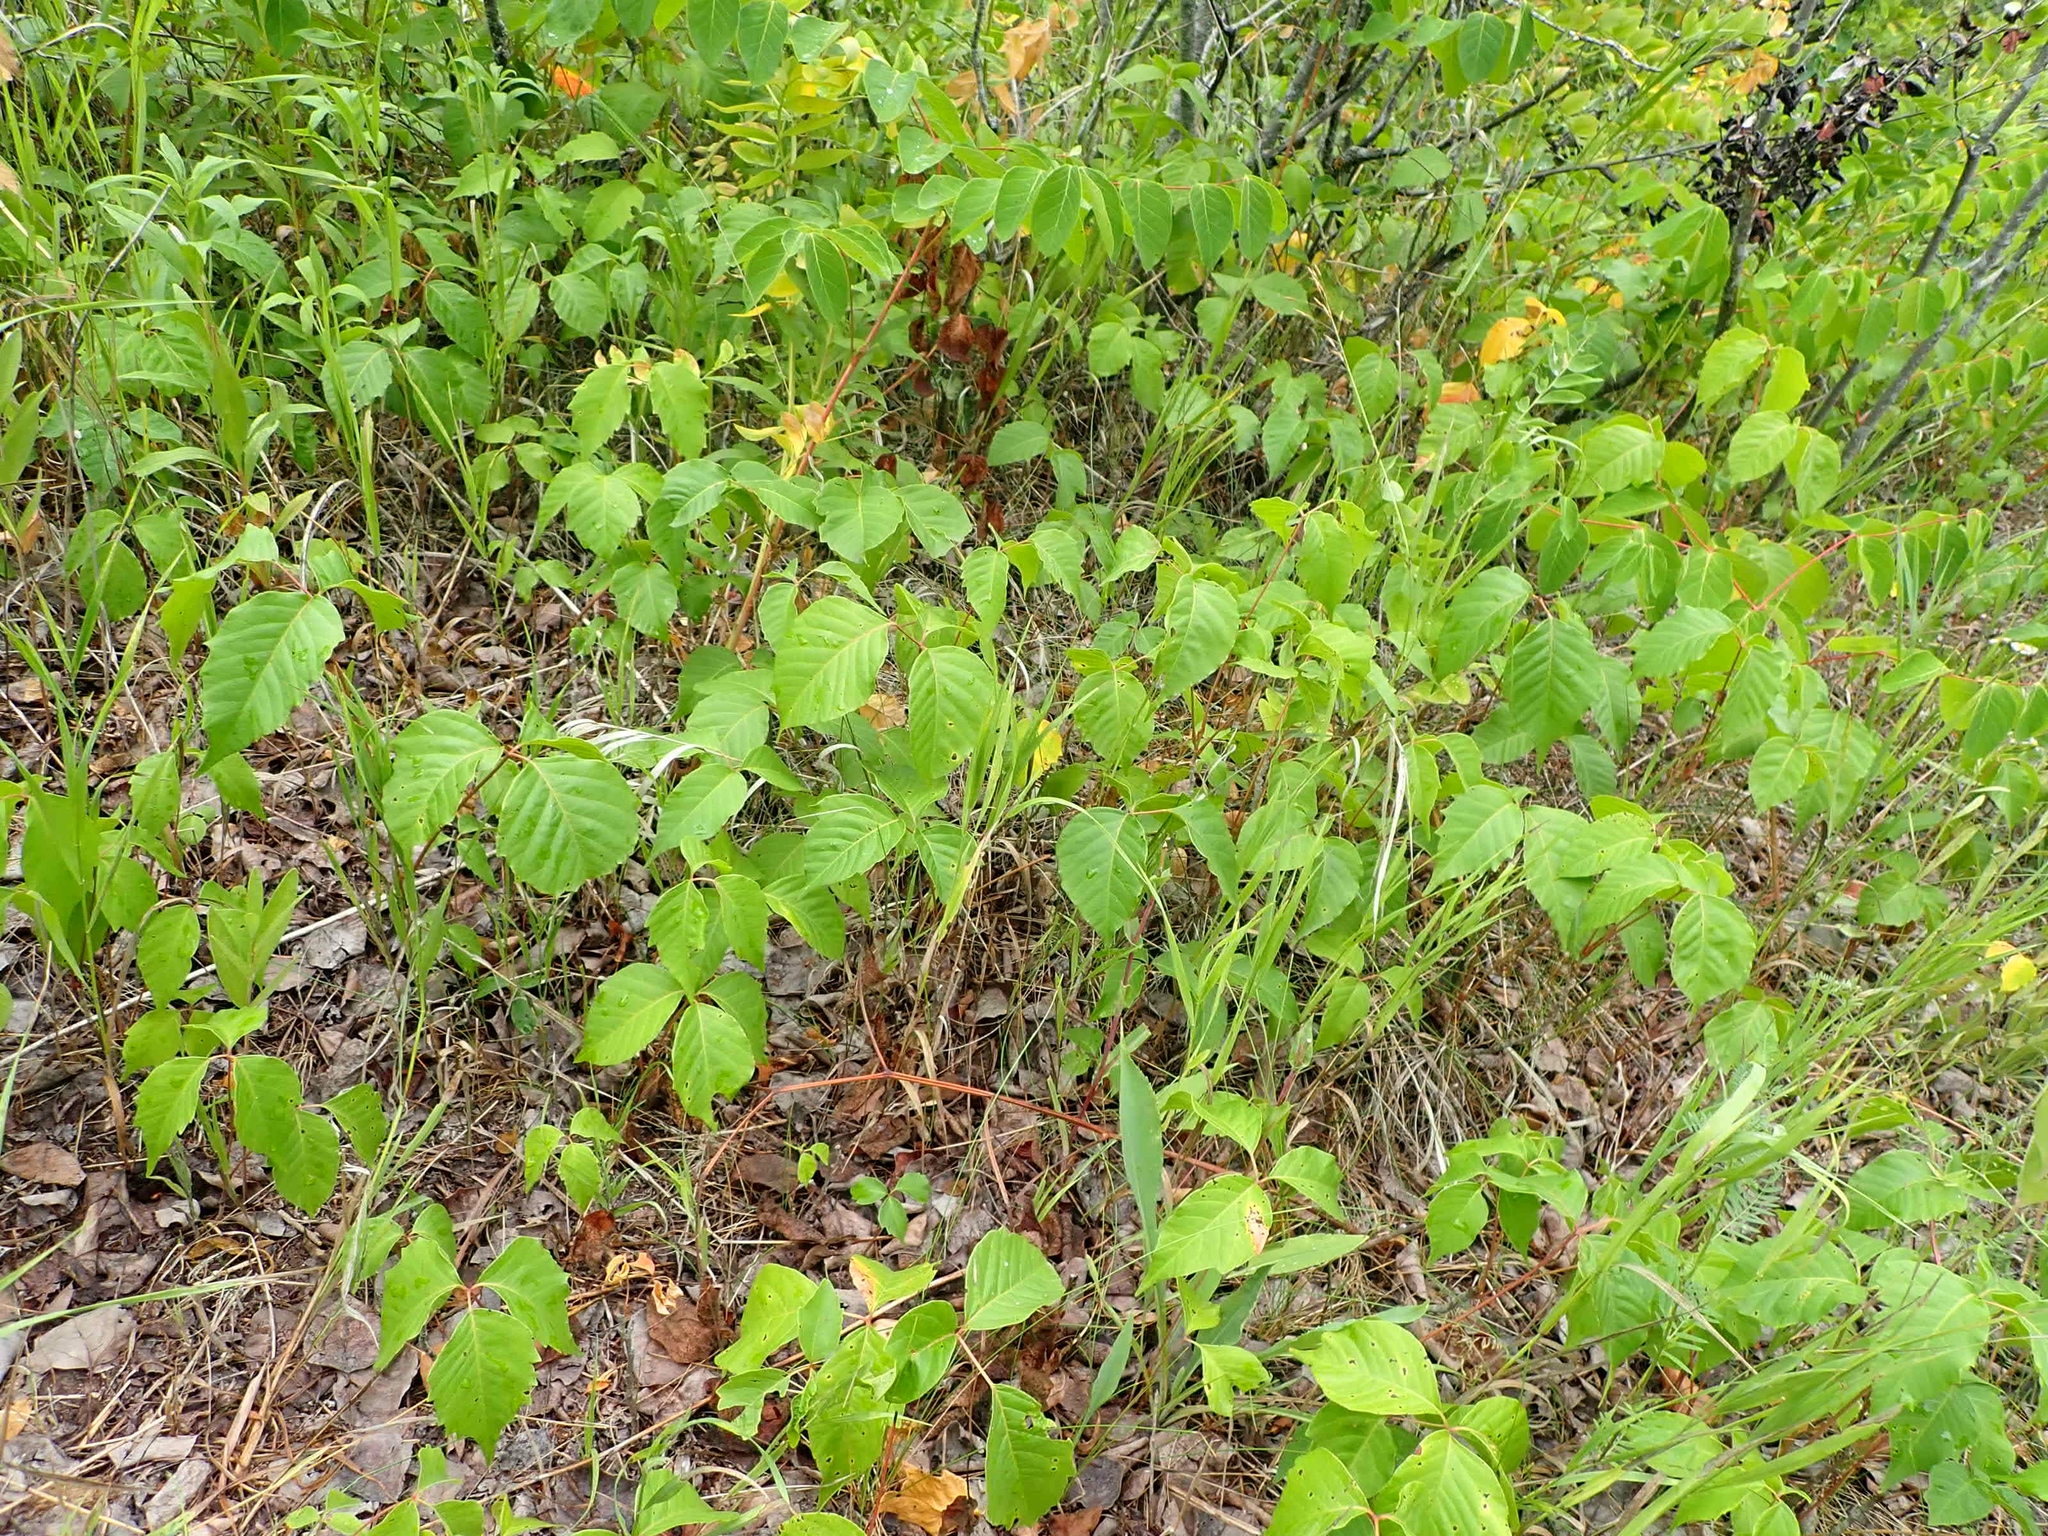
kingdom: Plantae
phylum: Tracheophyta
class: Magnoliopsida
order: Sapindales
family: Anacardiaceae
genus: Toxicodendron
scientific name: Toxicodendron rydbergii
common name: Rydberg's poison-ivy
